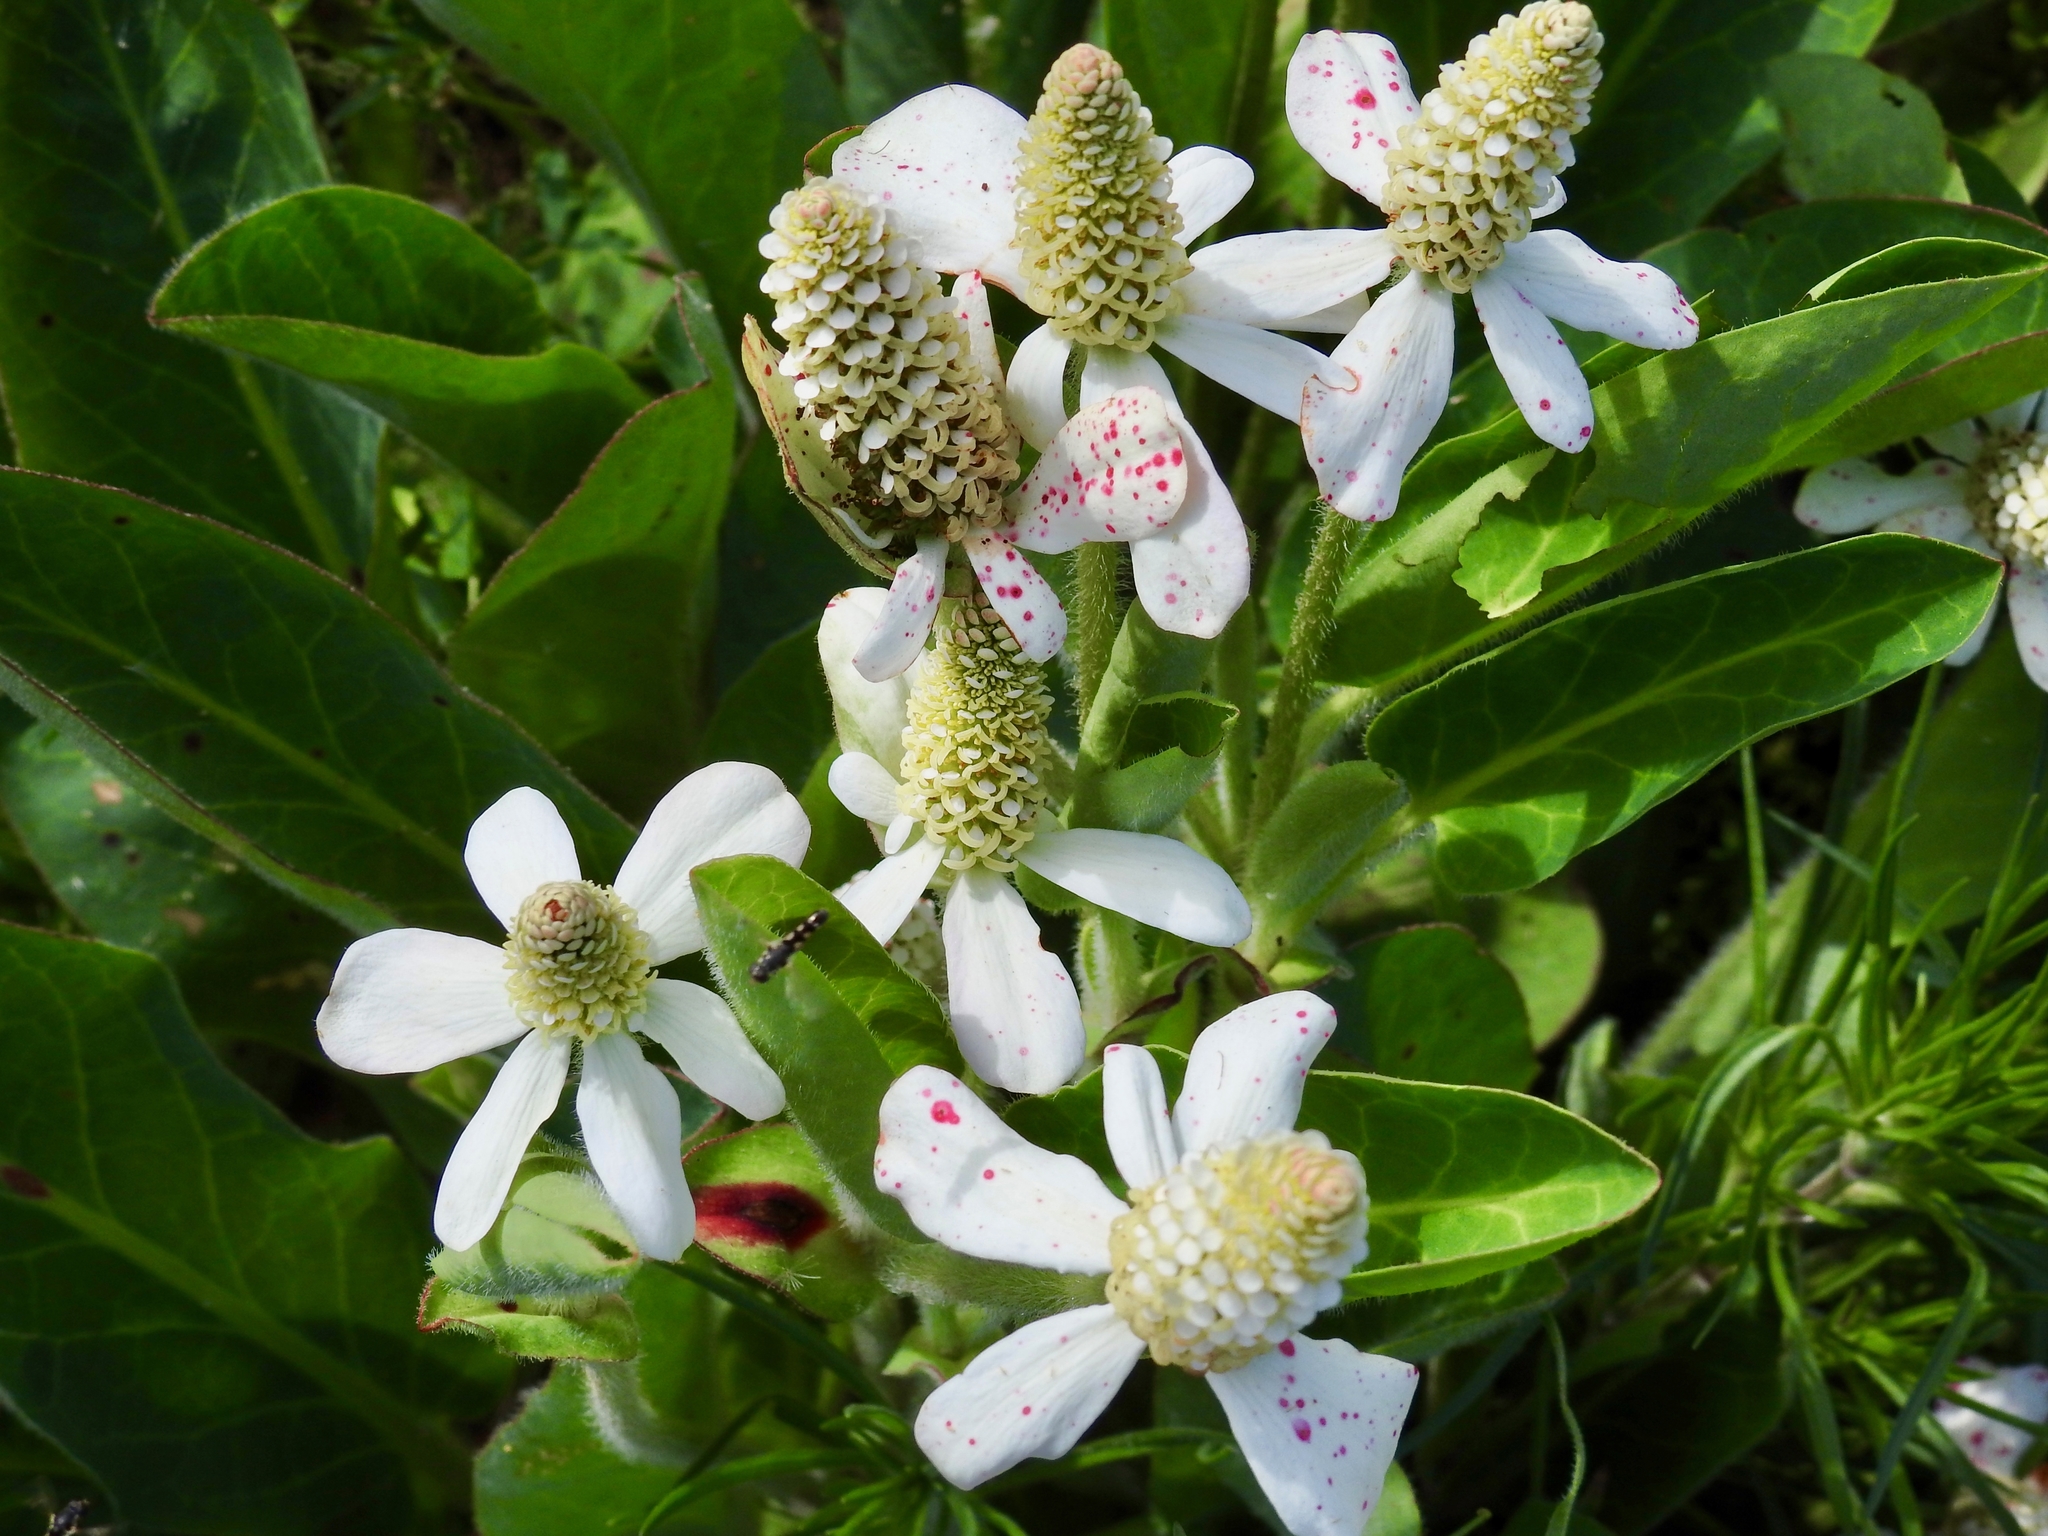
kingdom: Plantae
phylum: Tracheophyta
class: Magnoliopsida
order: Piperales
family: Saururaceae
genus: Anemopsis
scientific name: Anemopsis californica
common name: Apache-beads
